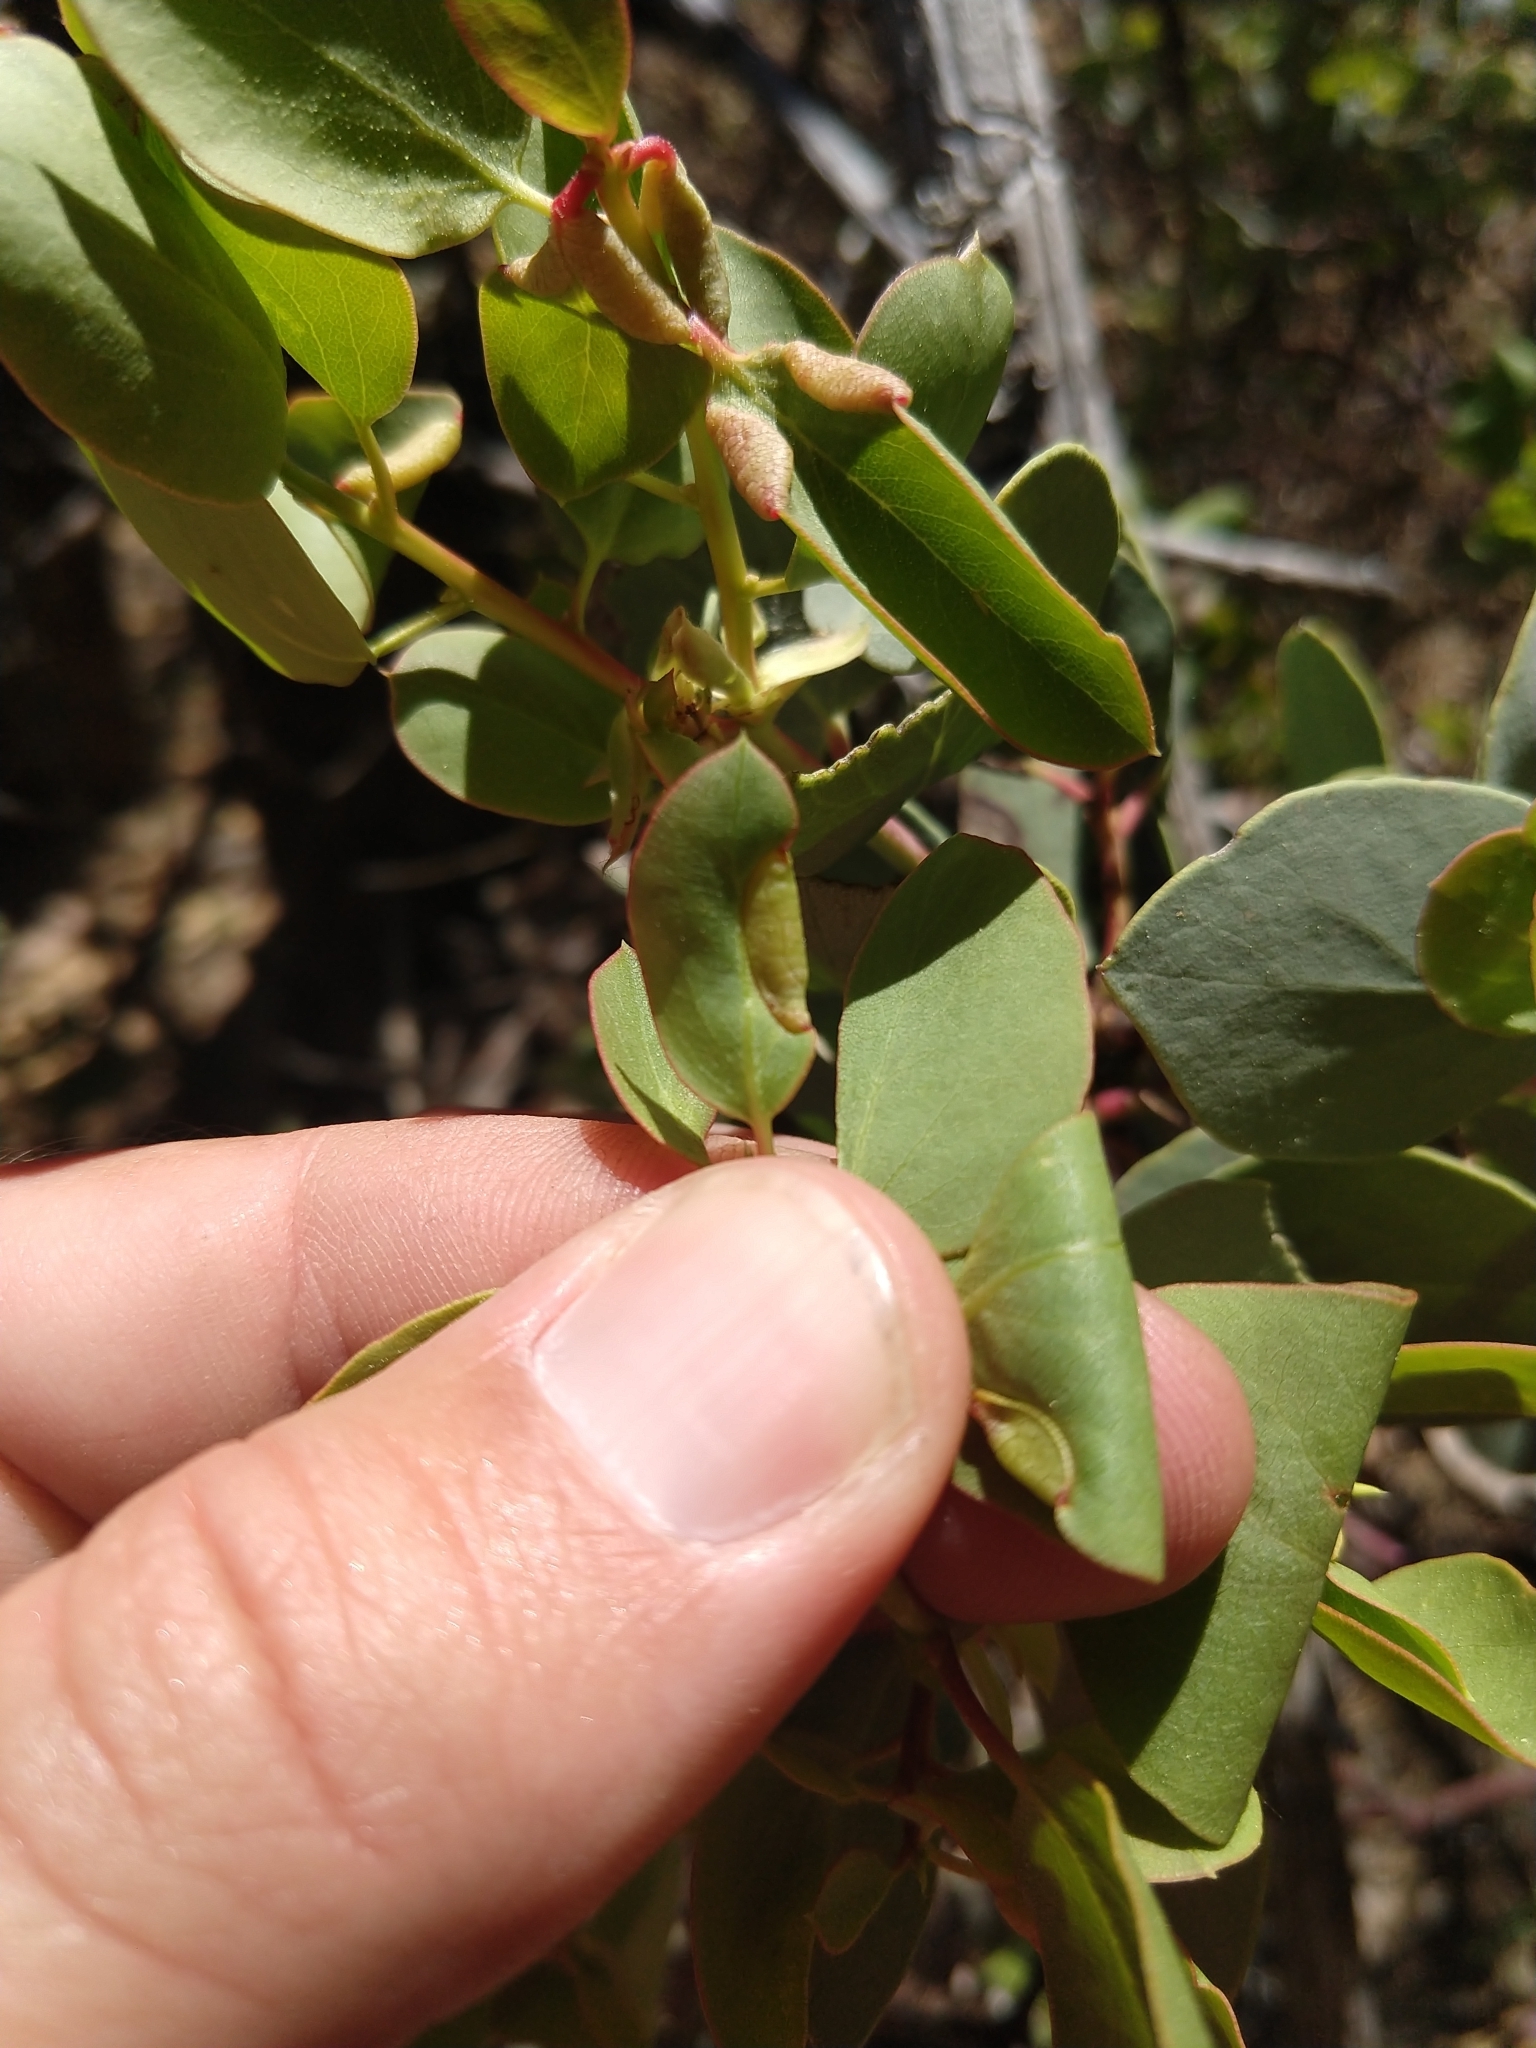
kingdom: Animalia
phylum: Arthropoda
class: Insecta
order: Hemiptera
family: Aphididae
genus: Tamalia
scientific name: Tamalia coweni
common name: Manzanita leafgall aphid
